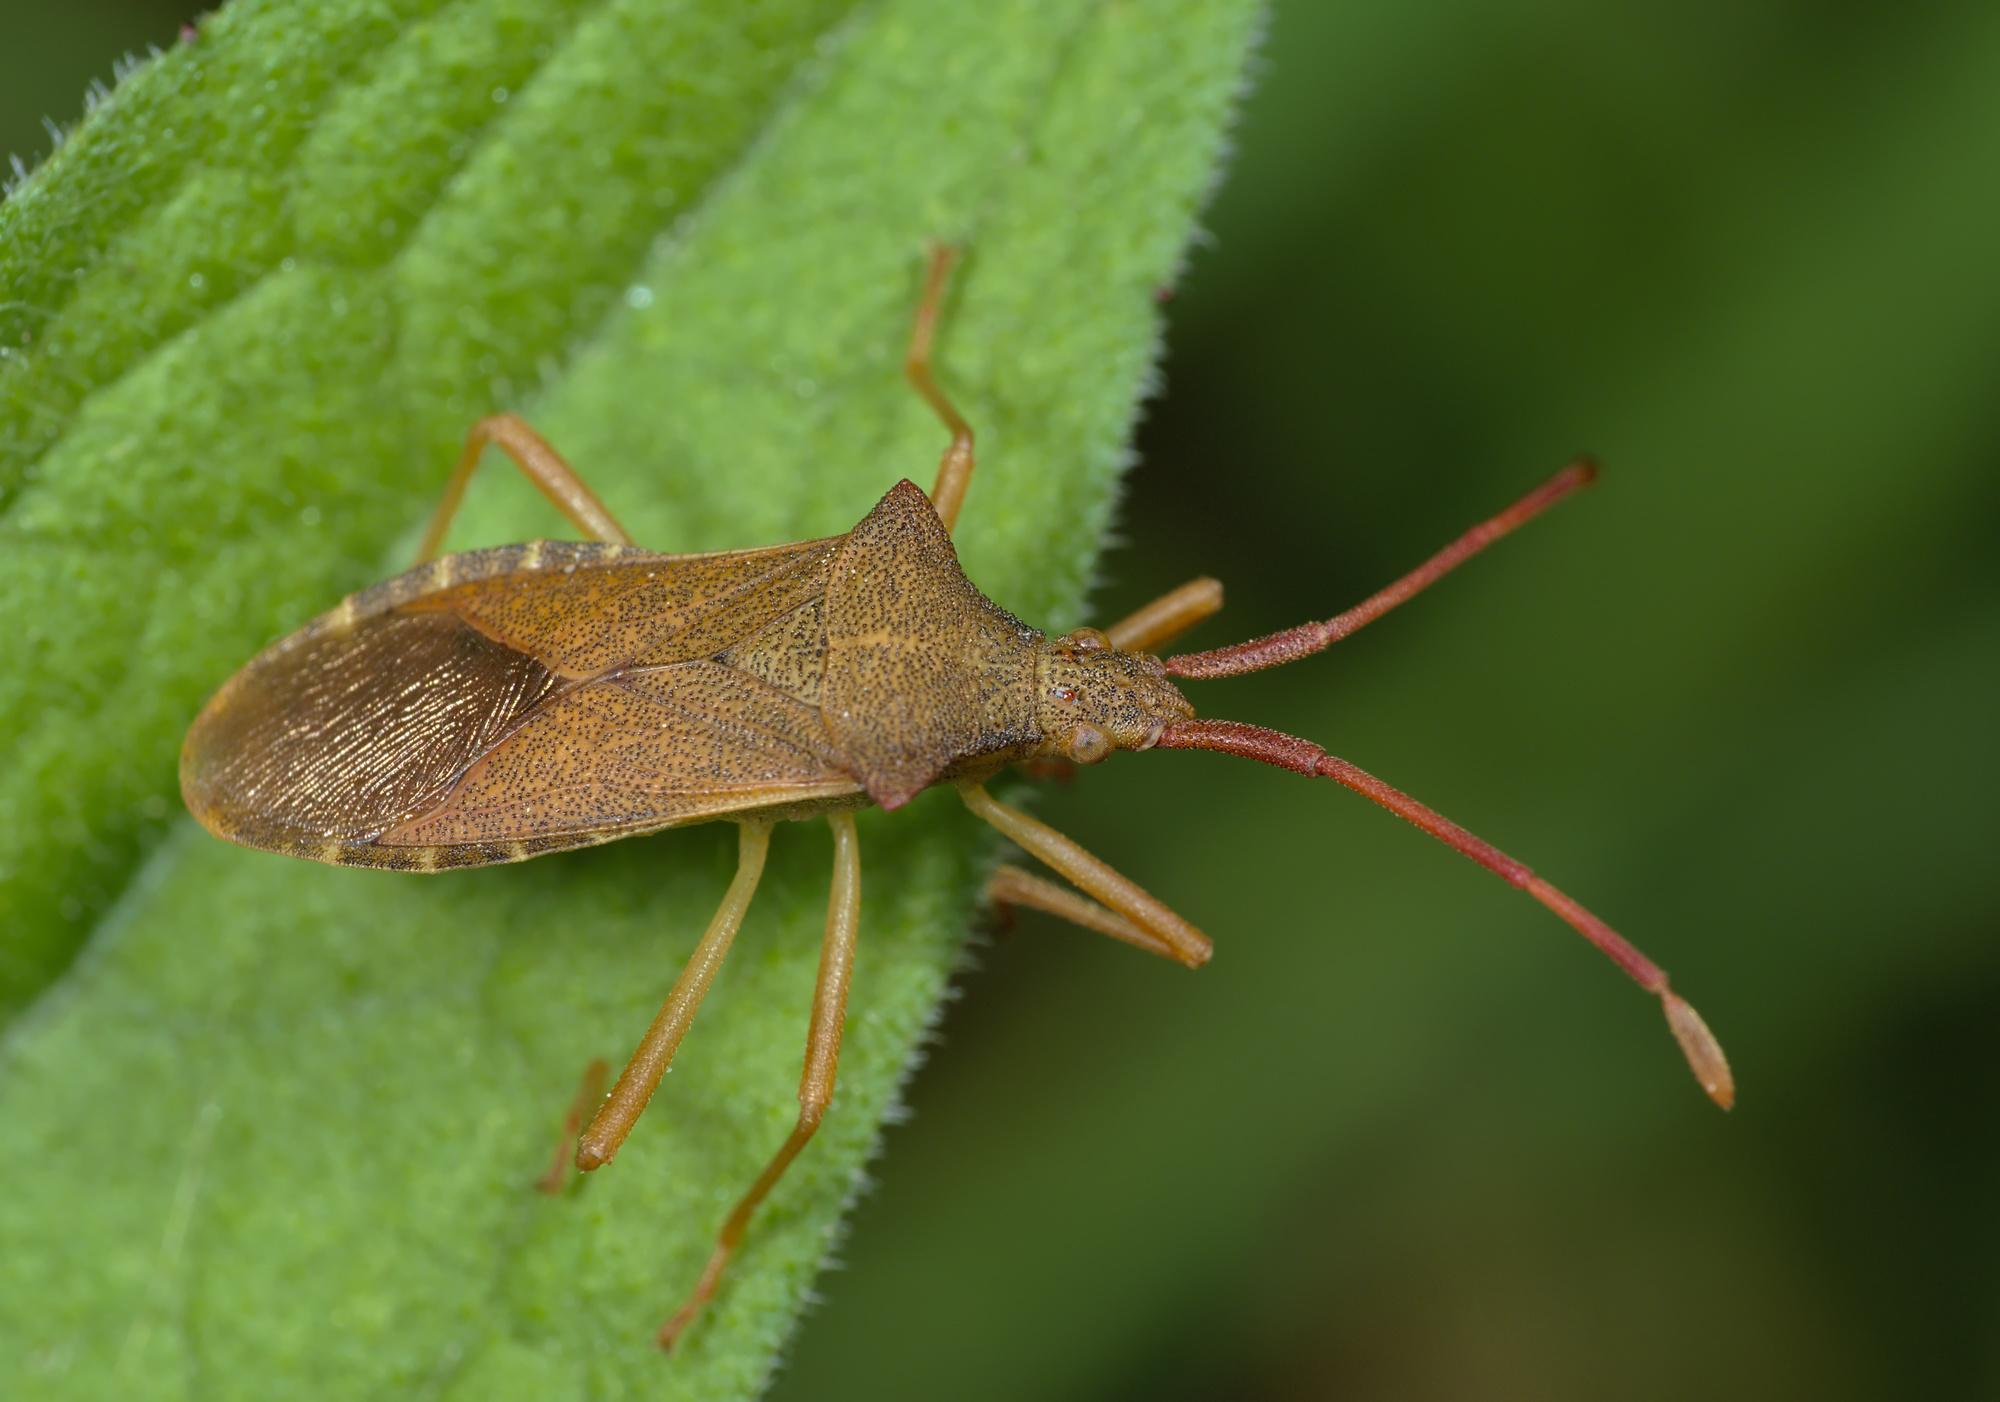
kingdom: Animalia
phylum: Arthropoda
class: Insecta
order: Hemiptera
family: Coreidae
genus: Gonocerus
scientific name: Gonocerus acuteangulatus
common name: Box bug
